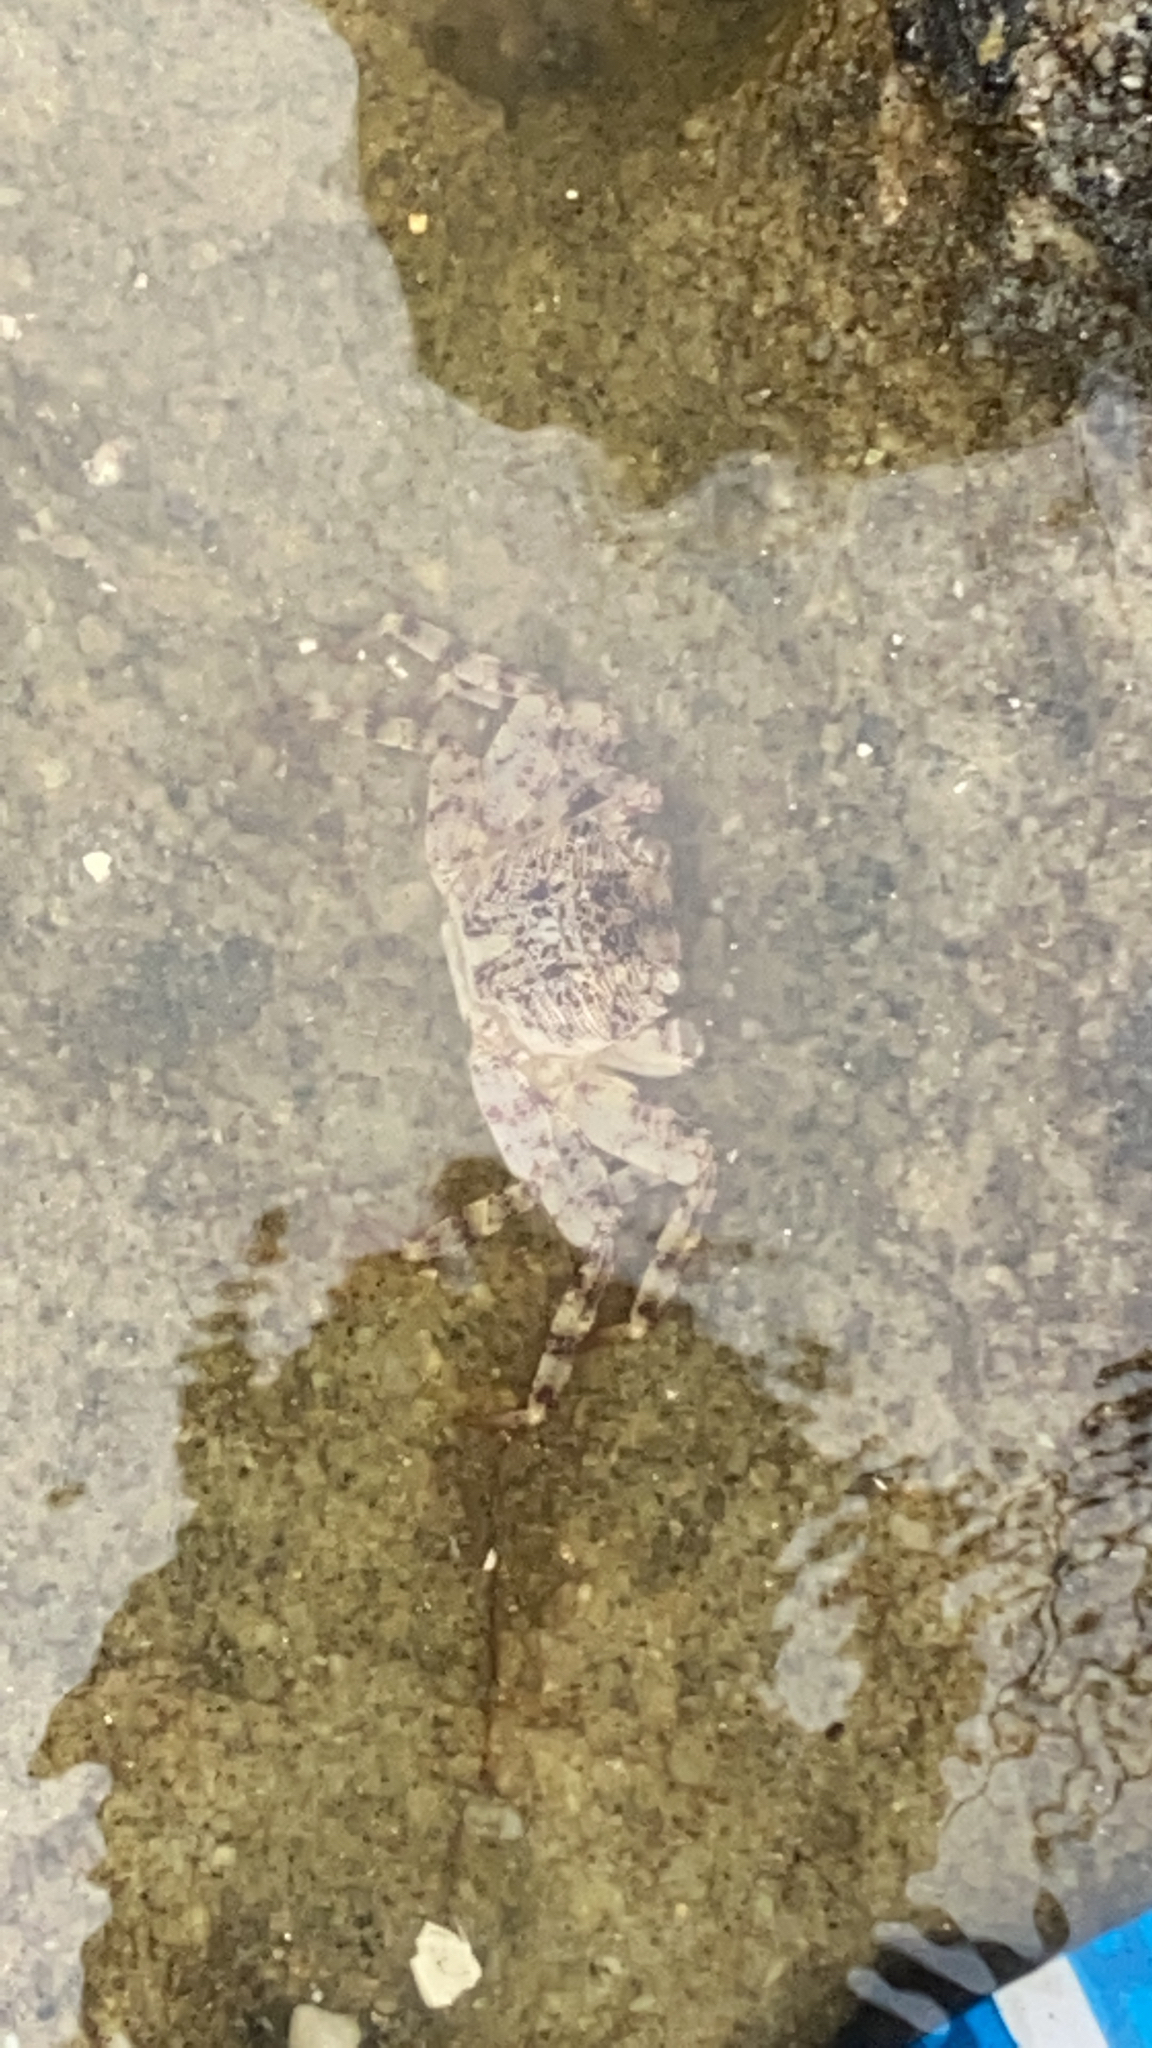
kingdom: Animalia
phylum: Arthropoda
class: Malacostraca
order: Decapoda
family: Grapsidae
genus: Leptograpsus
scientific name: Leptograpsus variegatus
